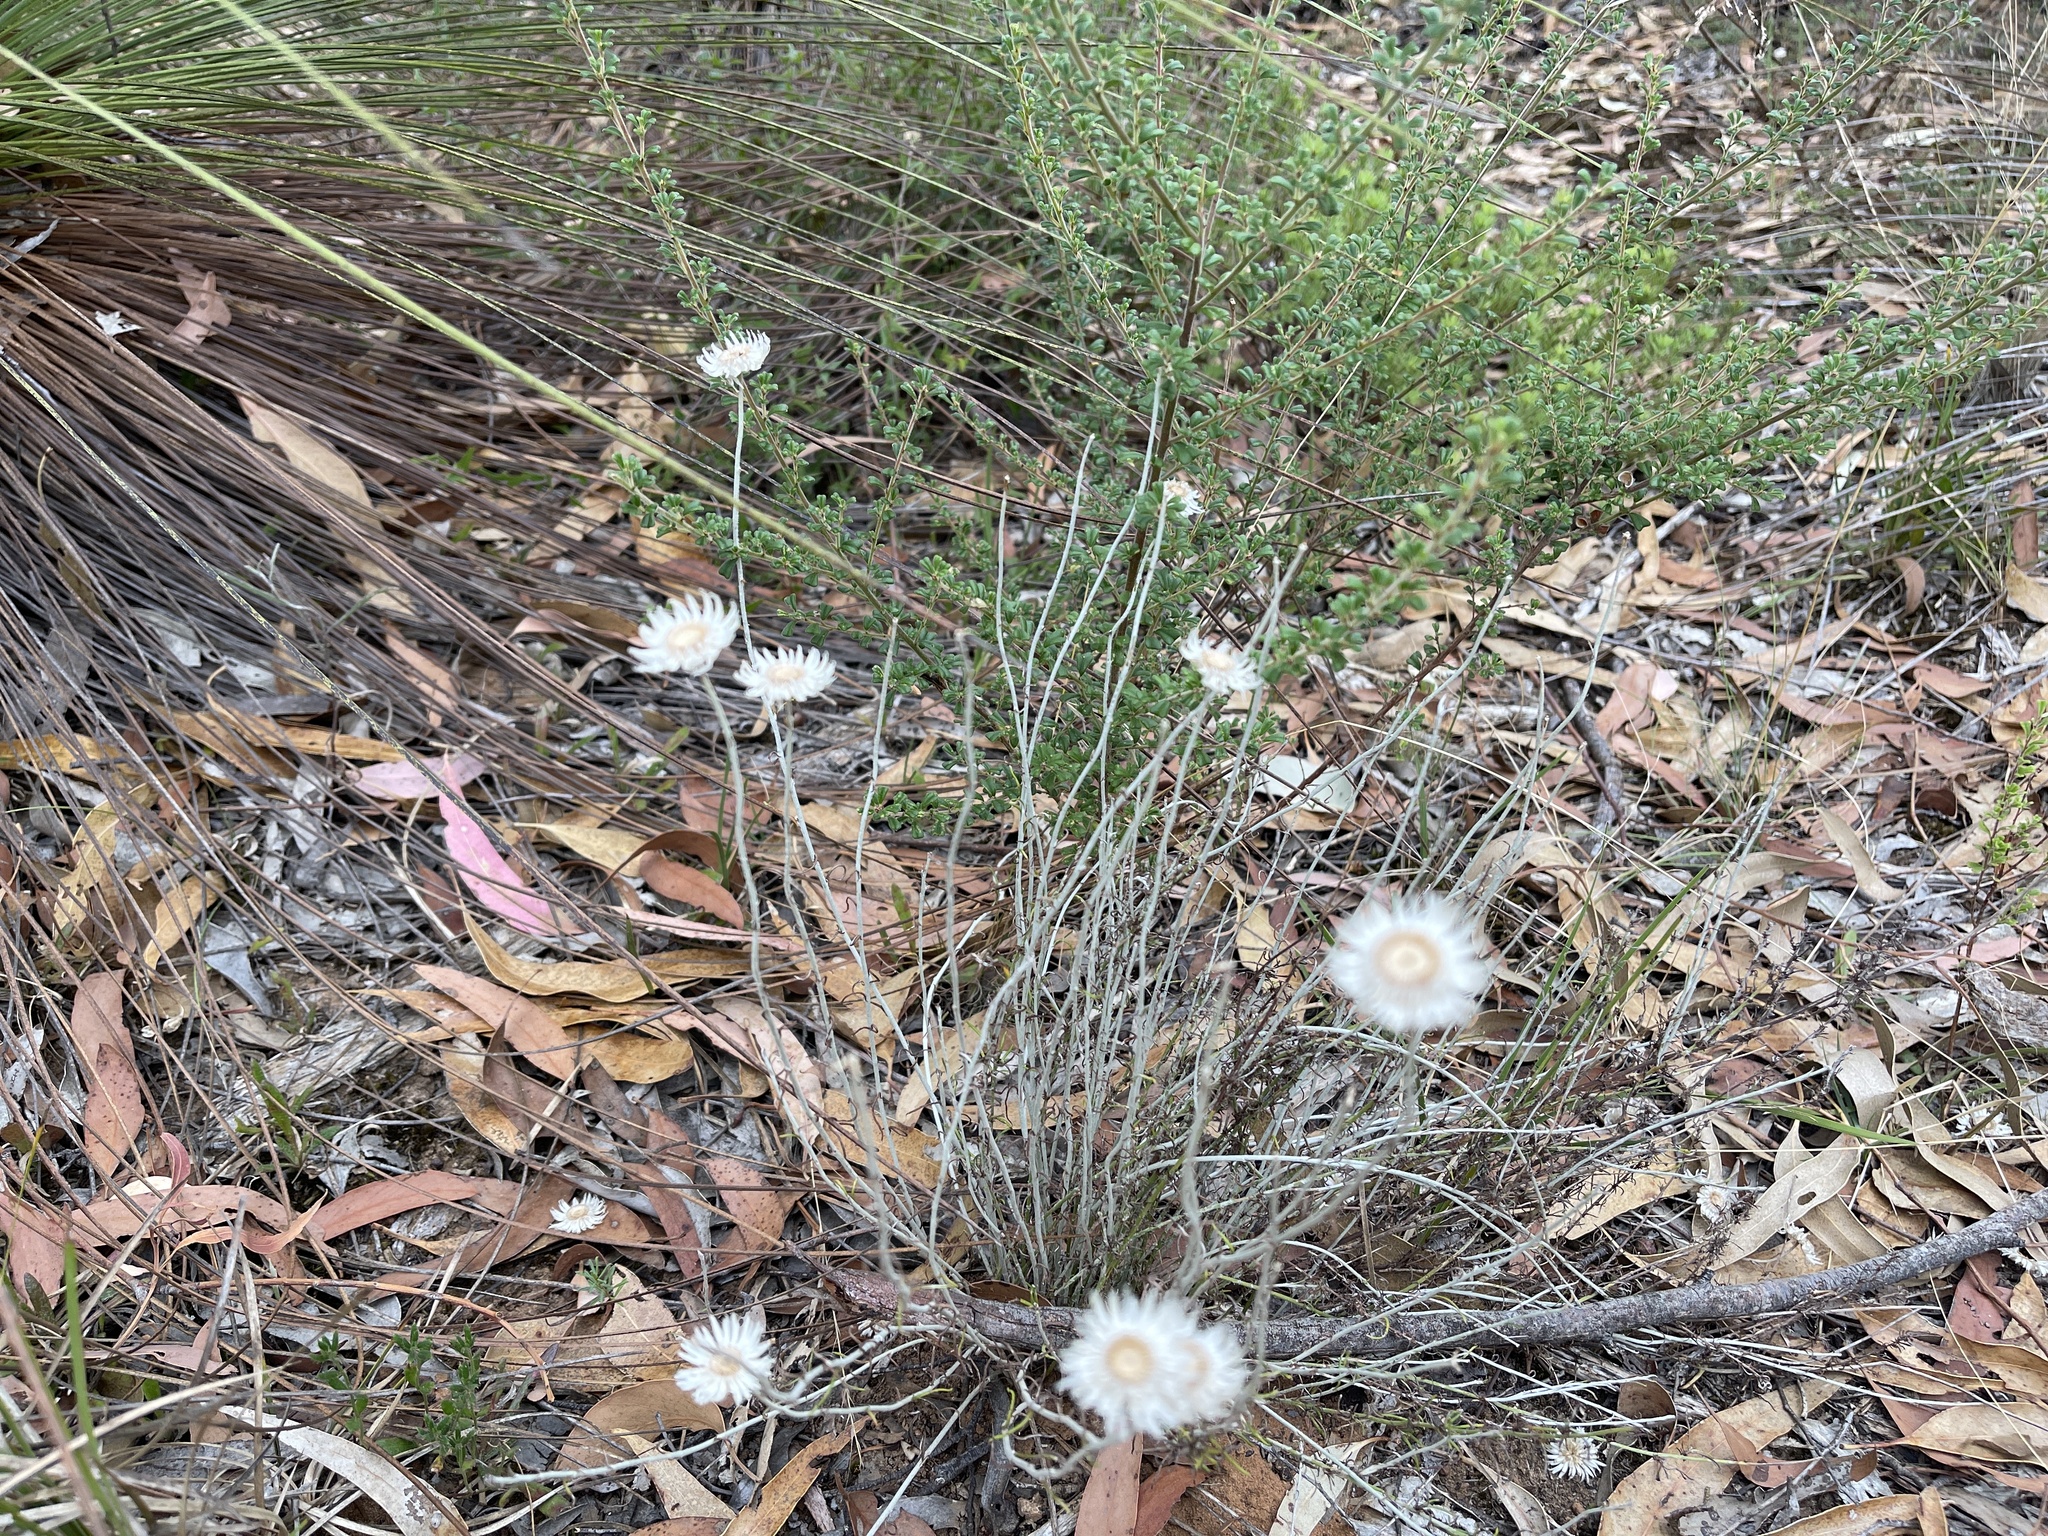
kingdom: Plantae
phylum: Tracheophyta
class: Magnoliopsida
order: Asterales
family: Asteraceae
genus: Chrysocephalum
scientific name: Chrysocephalum baxteri
